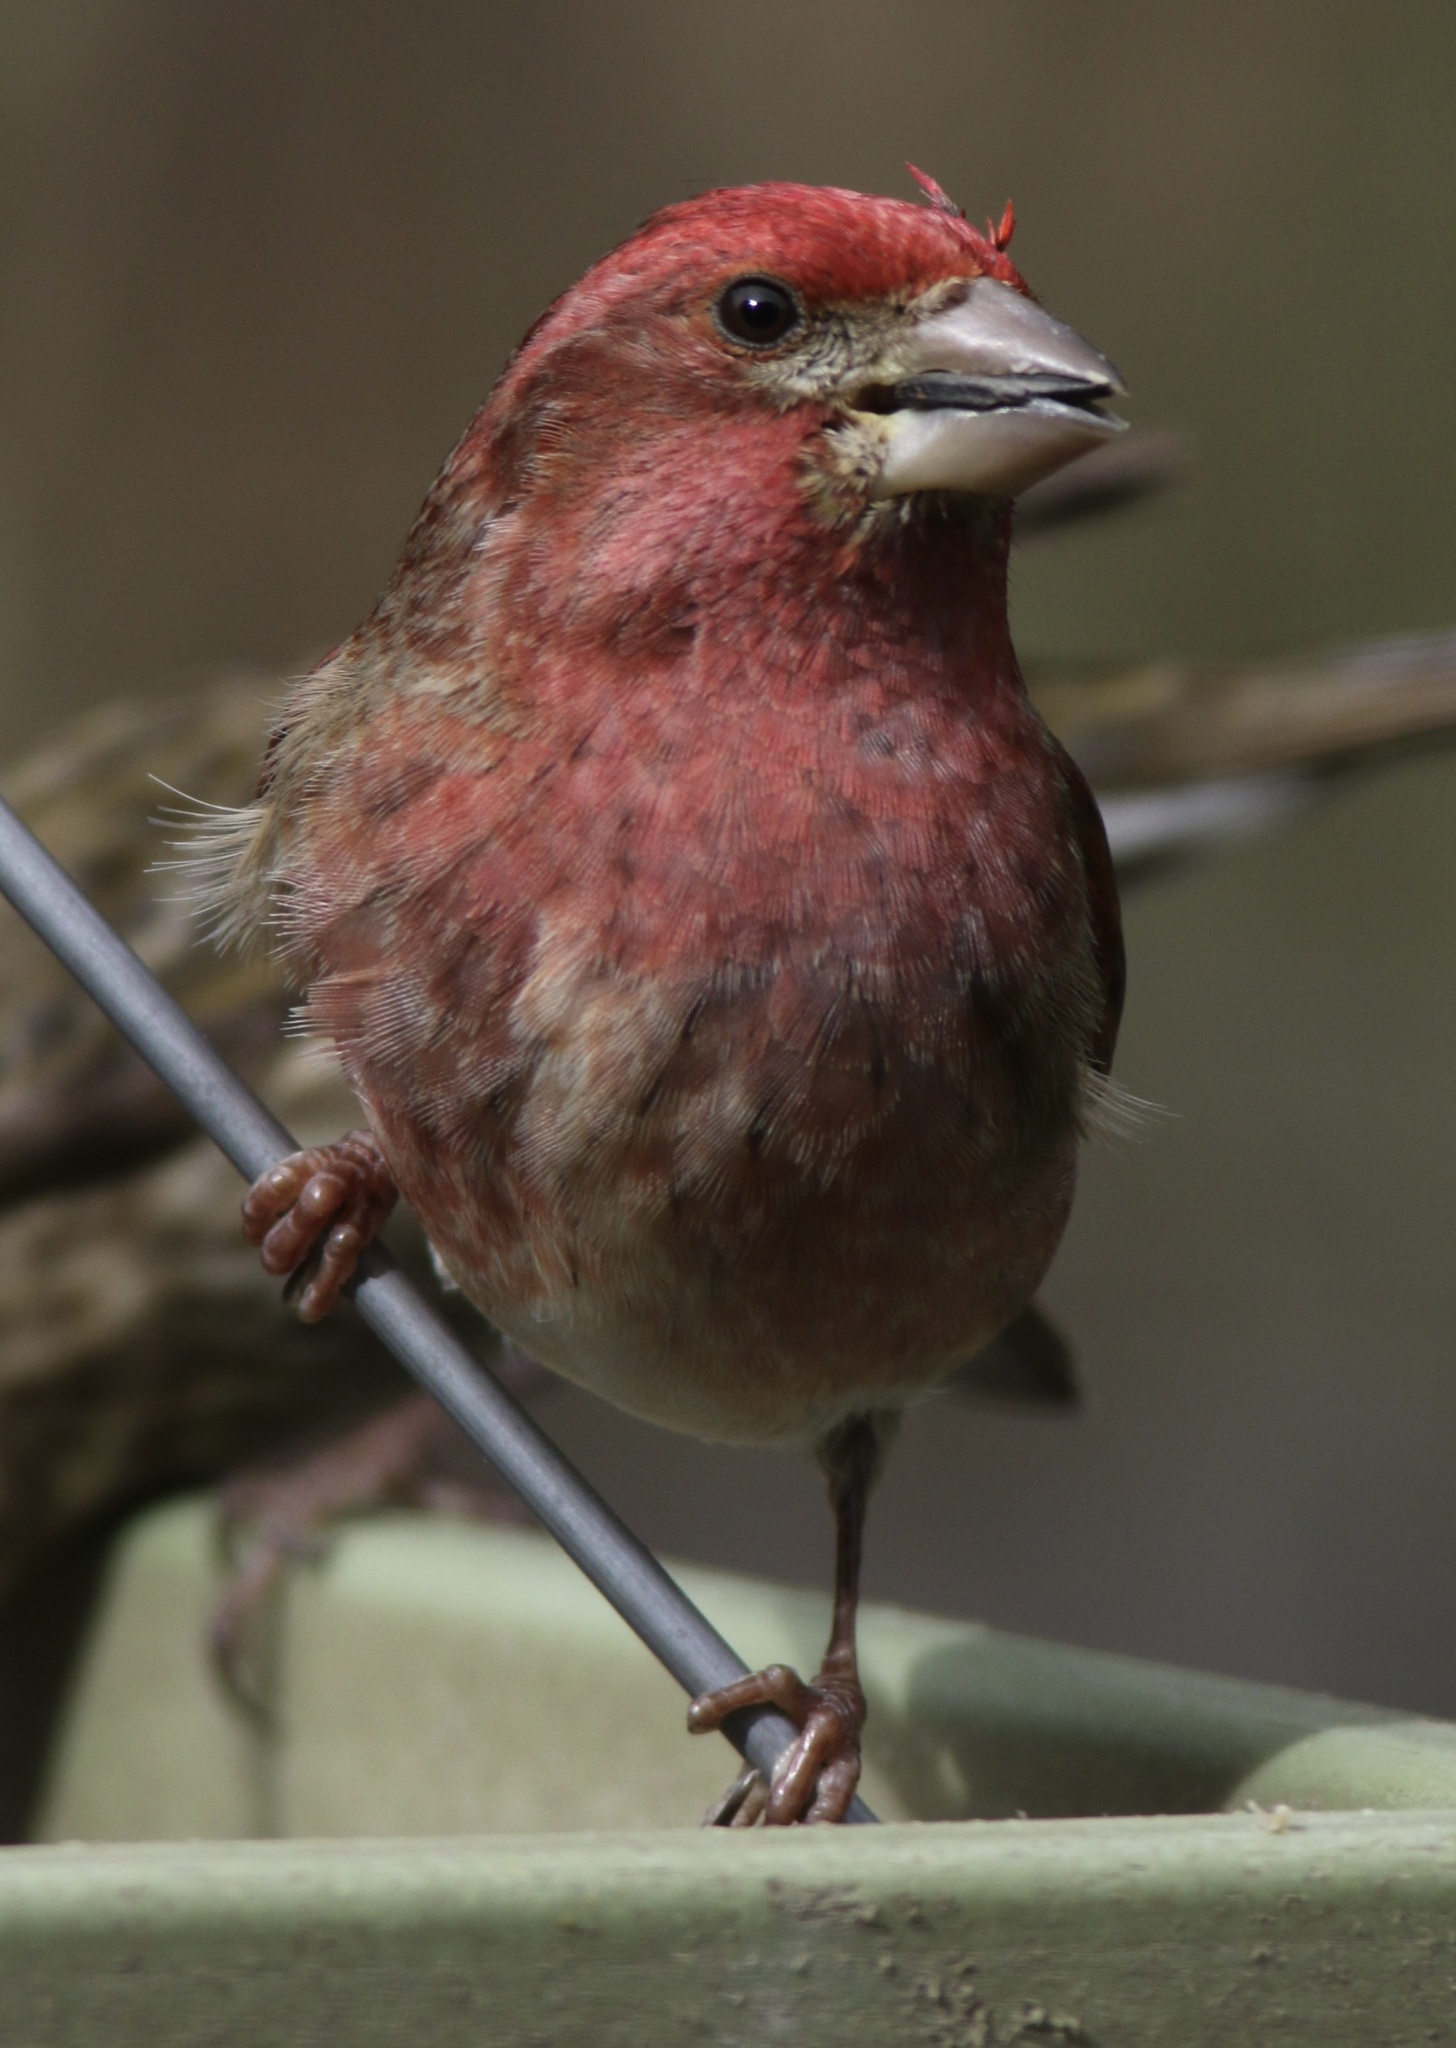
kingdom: Animalia
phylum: Chordata
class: Aves
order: Passeriformes
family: Fringillidae
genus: Haemorhous
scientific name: Haemorhous purpureus
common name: Purple finch
